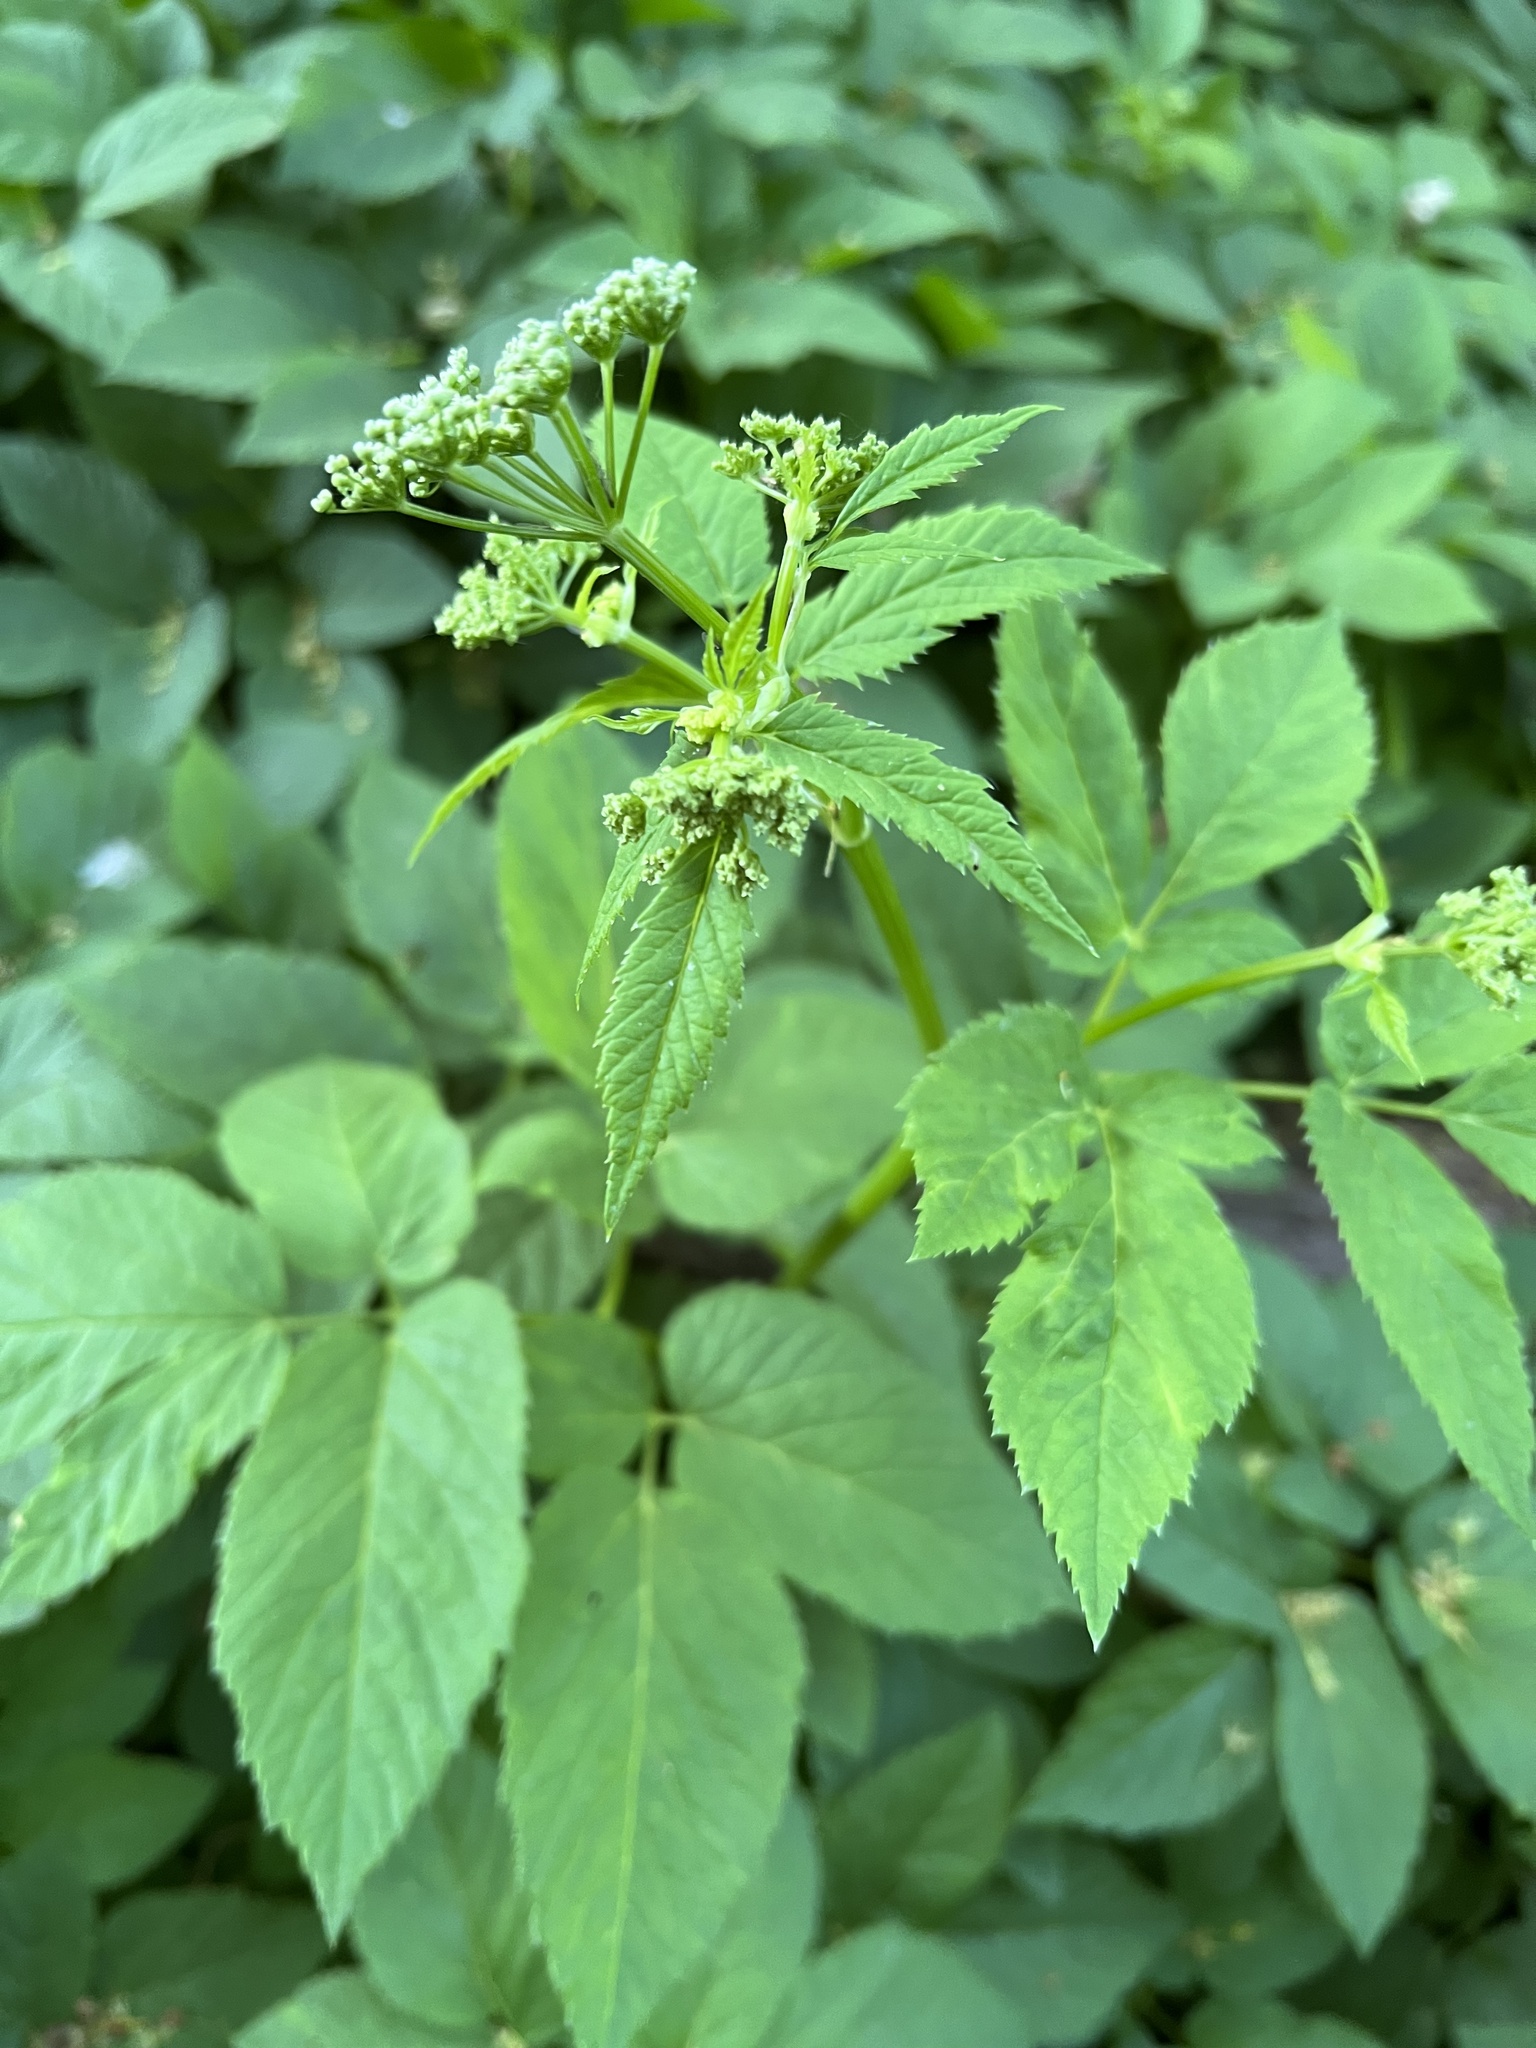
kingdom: Plantae
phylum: Tracheophyta
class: Magnoliopsida
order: Apiales
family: Apiaceae
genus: Aegopodium
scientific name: Aegopodium podagraria
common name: Ground-elder
